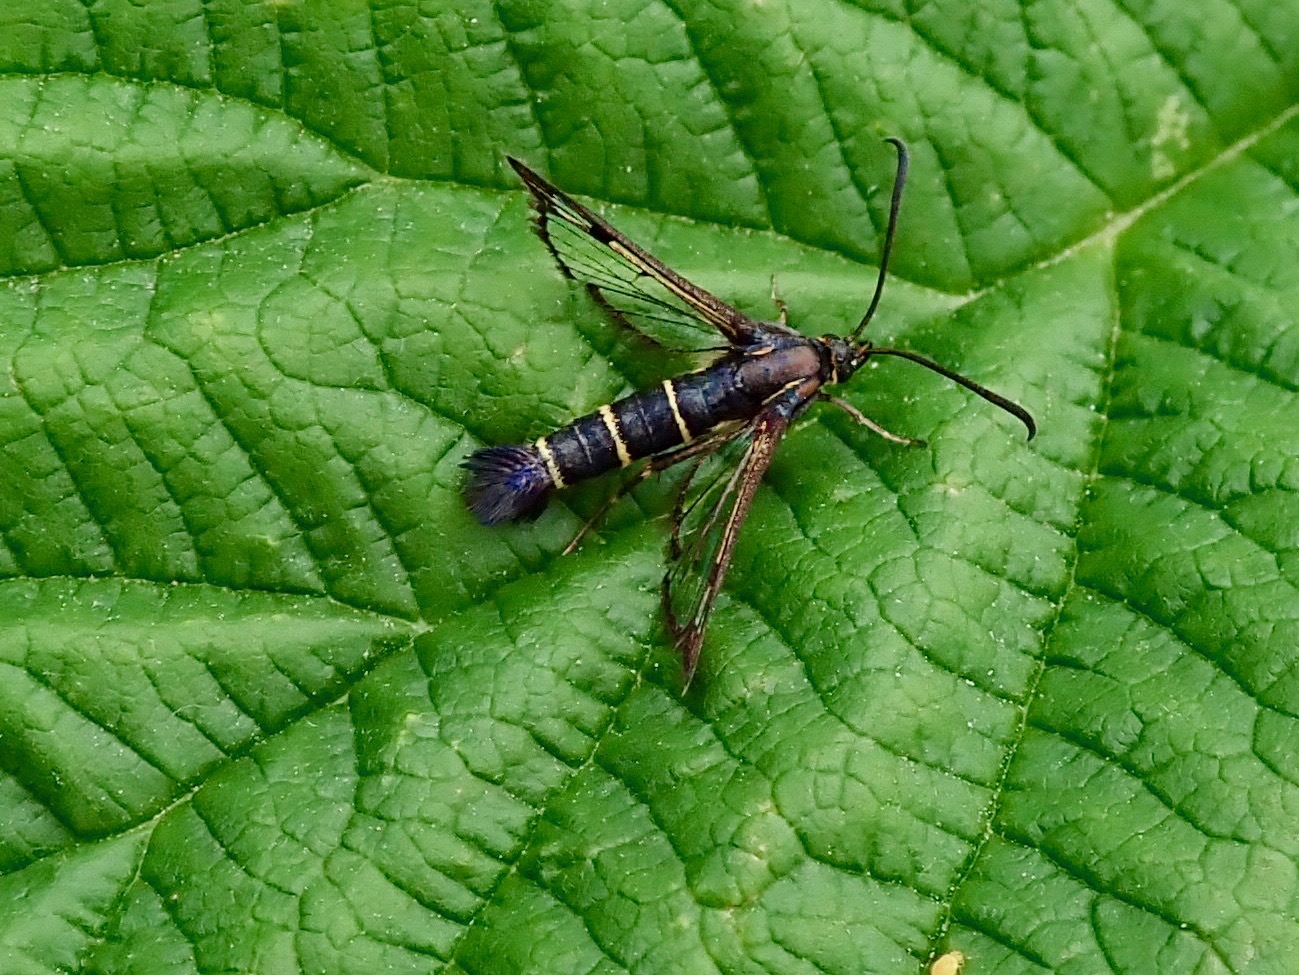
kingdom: Animalia
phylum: Arthropoda
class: Insecta
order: Lepidoptera
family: Sesiidae
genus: Synanthedon
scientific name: Synanthedon tipuliformis
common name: Currant clearwing
